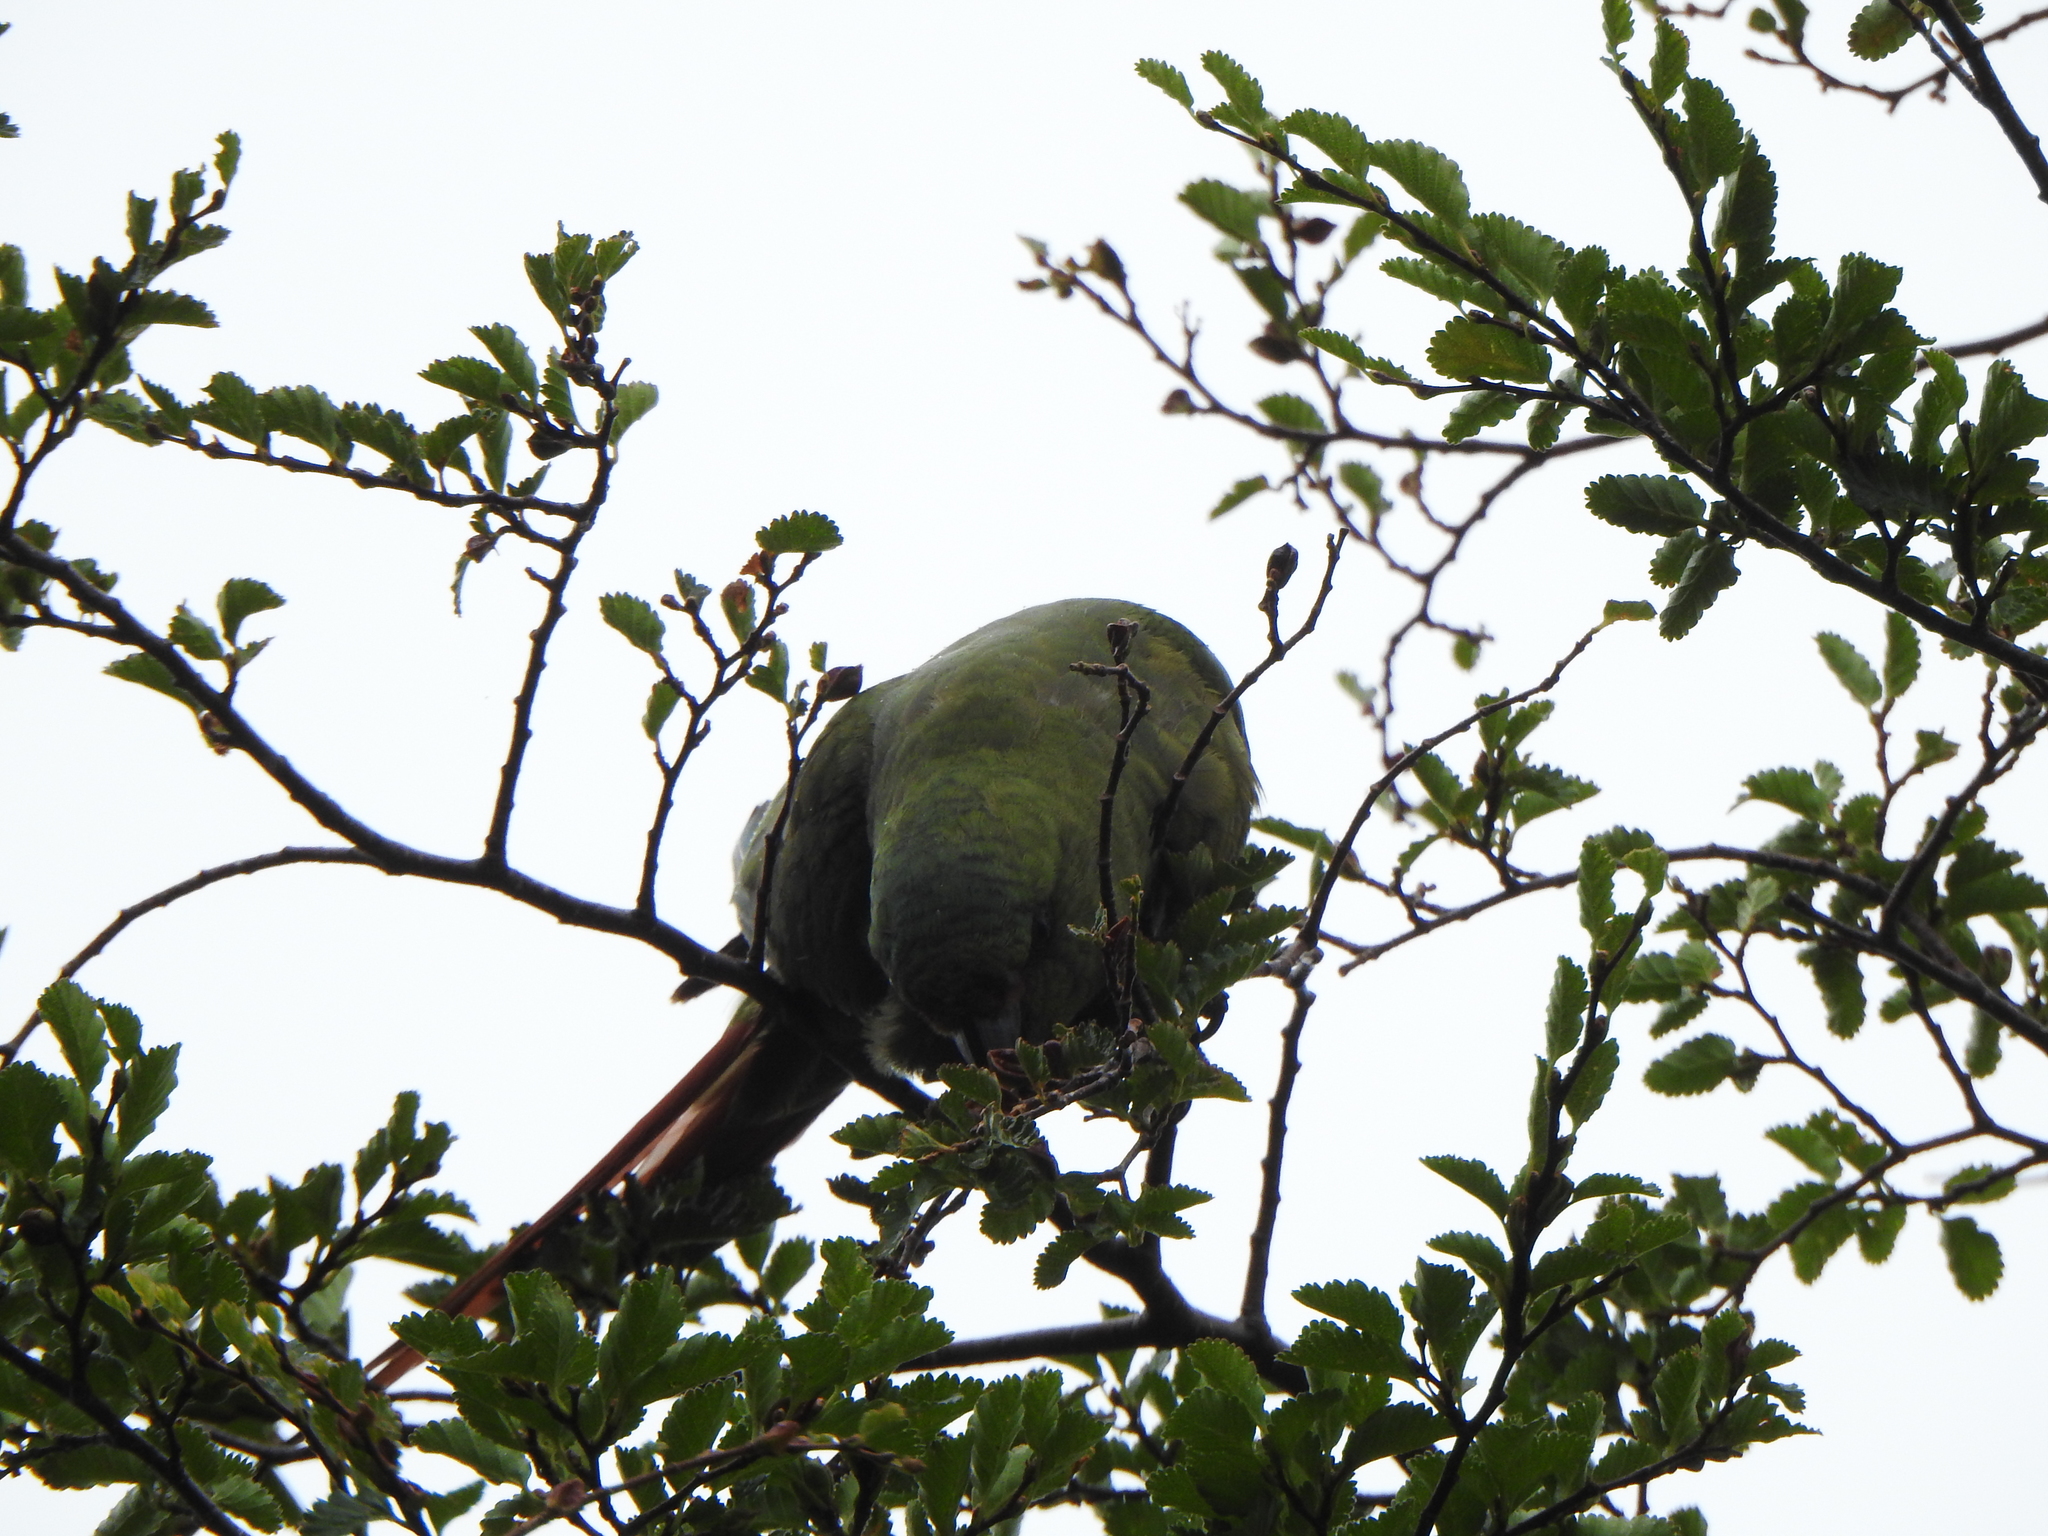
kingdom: Animalia
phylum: Chordata
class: Aves
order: Psittaciformes
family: Psittacidae
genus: Enicognathus
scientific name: Enicognathus ferrugineus
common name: Austral parakeet
